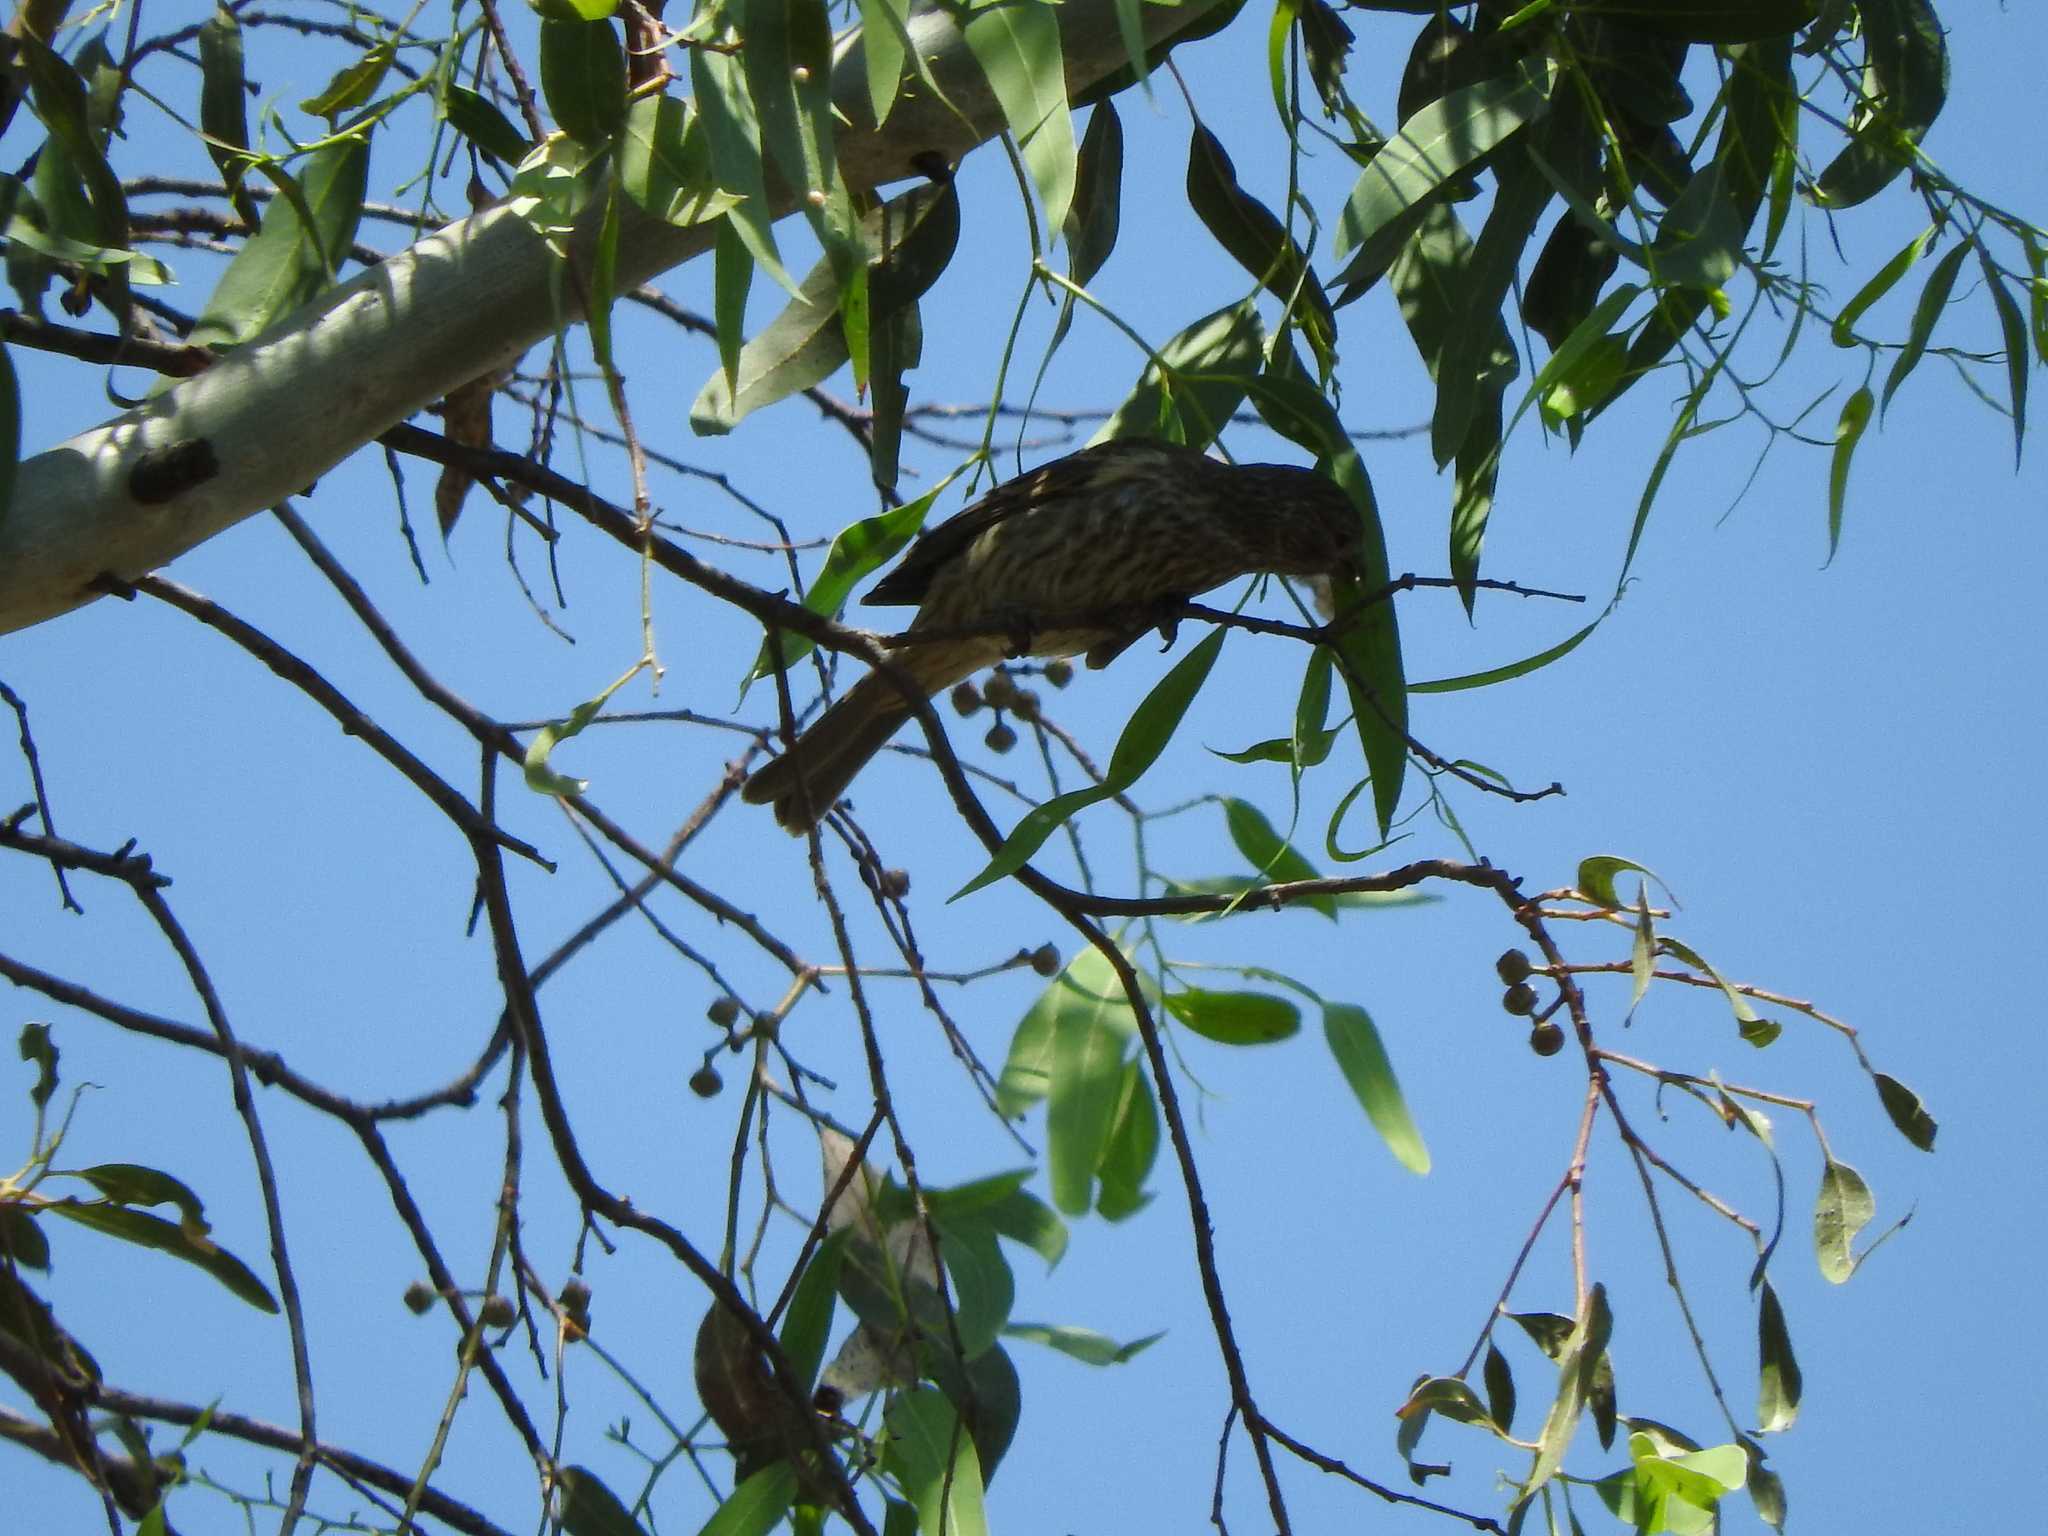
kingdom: Animalia
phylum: Chordata
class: Aves
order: Passeriformes
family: Fringillidae
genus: Haemorhous
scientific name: Haemorhous mexicanus
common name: House finch
